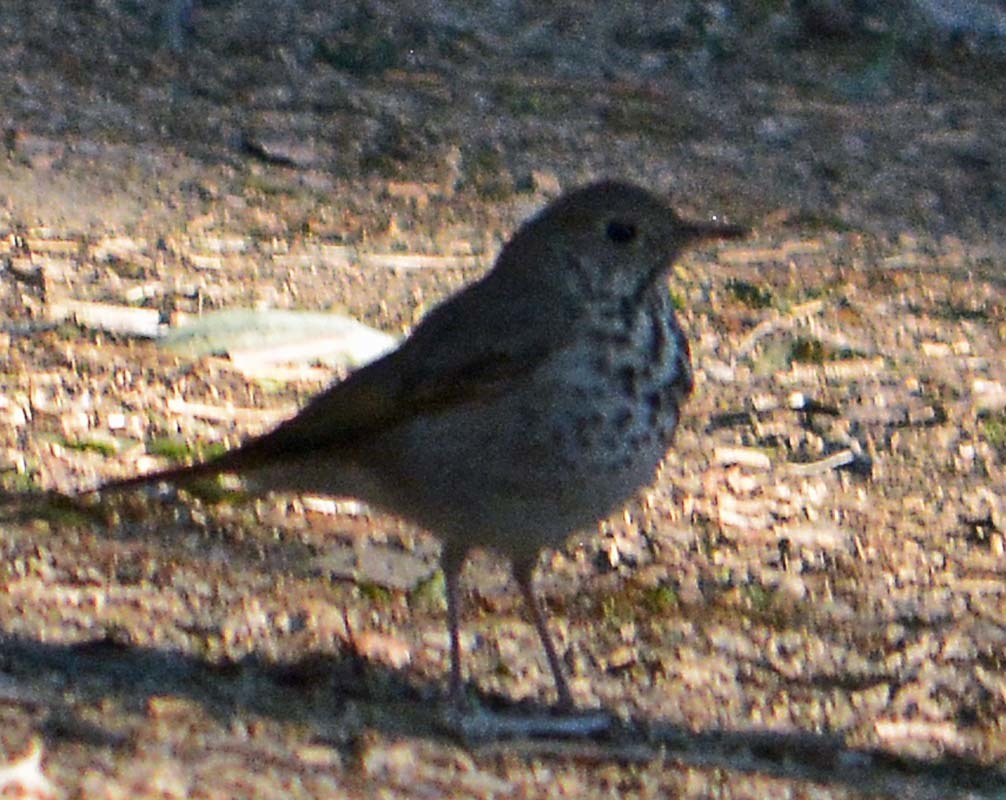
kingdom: Animalia
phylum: Chordata
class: Aves
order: Passeriformes
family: Turdidae
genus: Catharus
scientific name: Catharus guttatus
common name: Hermit thrush
